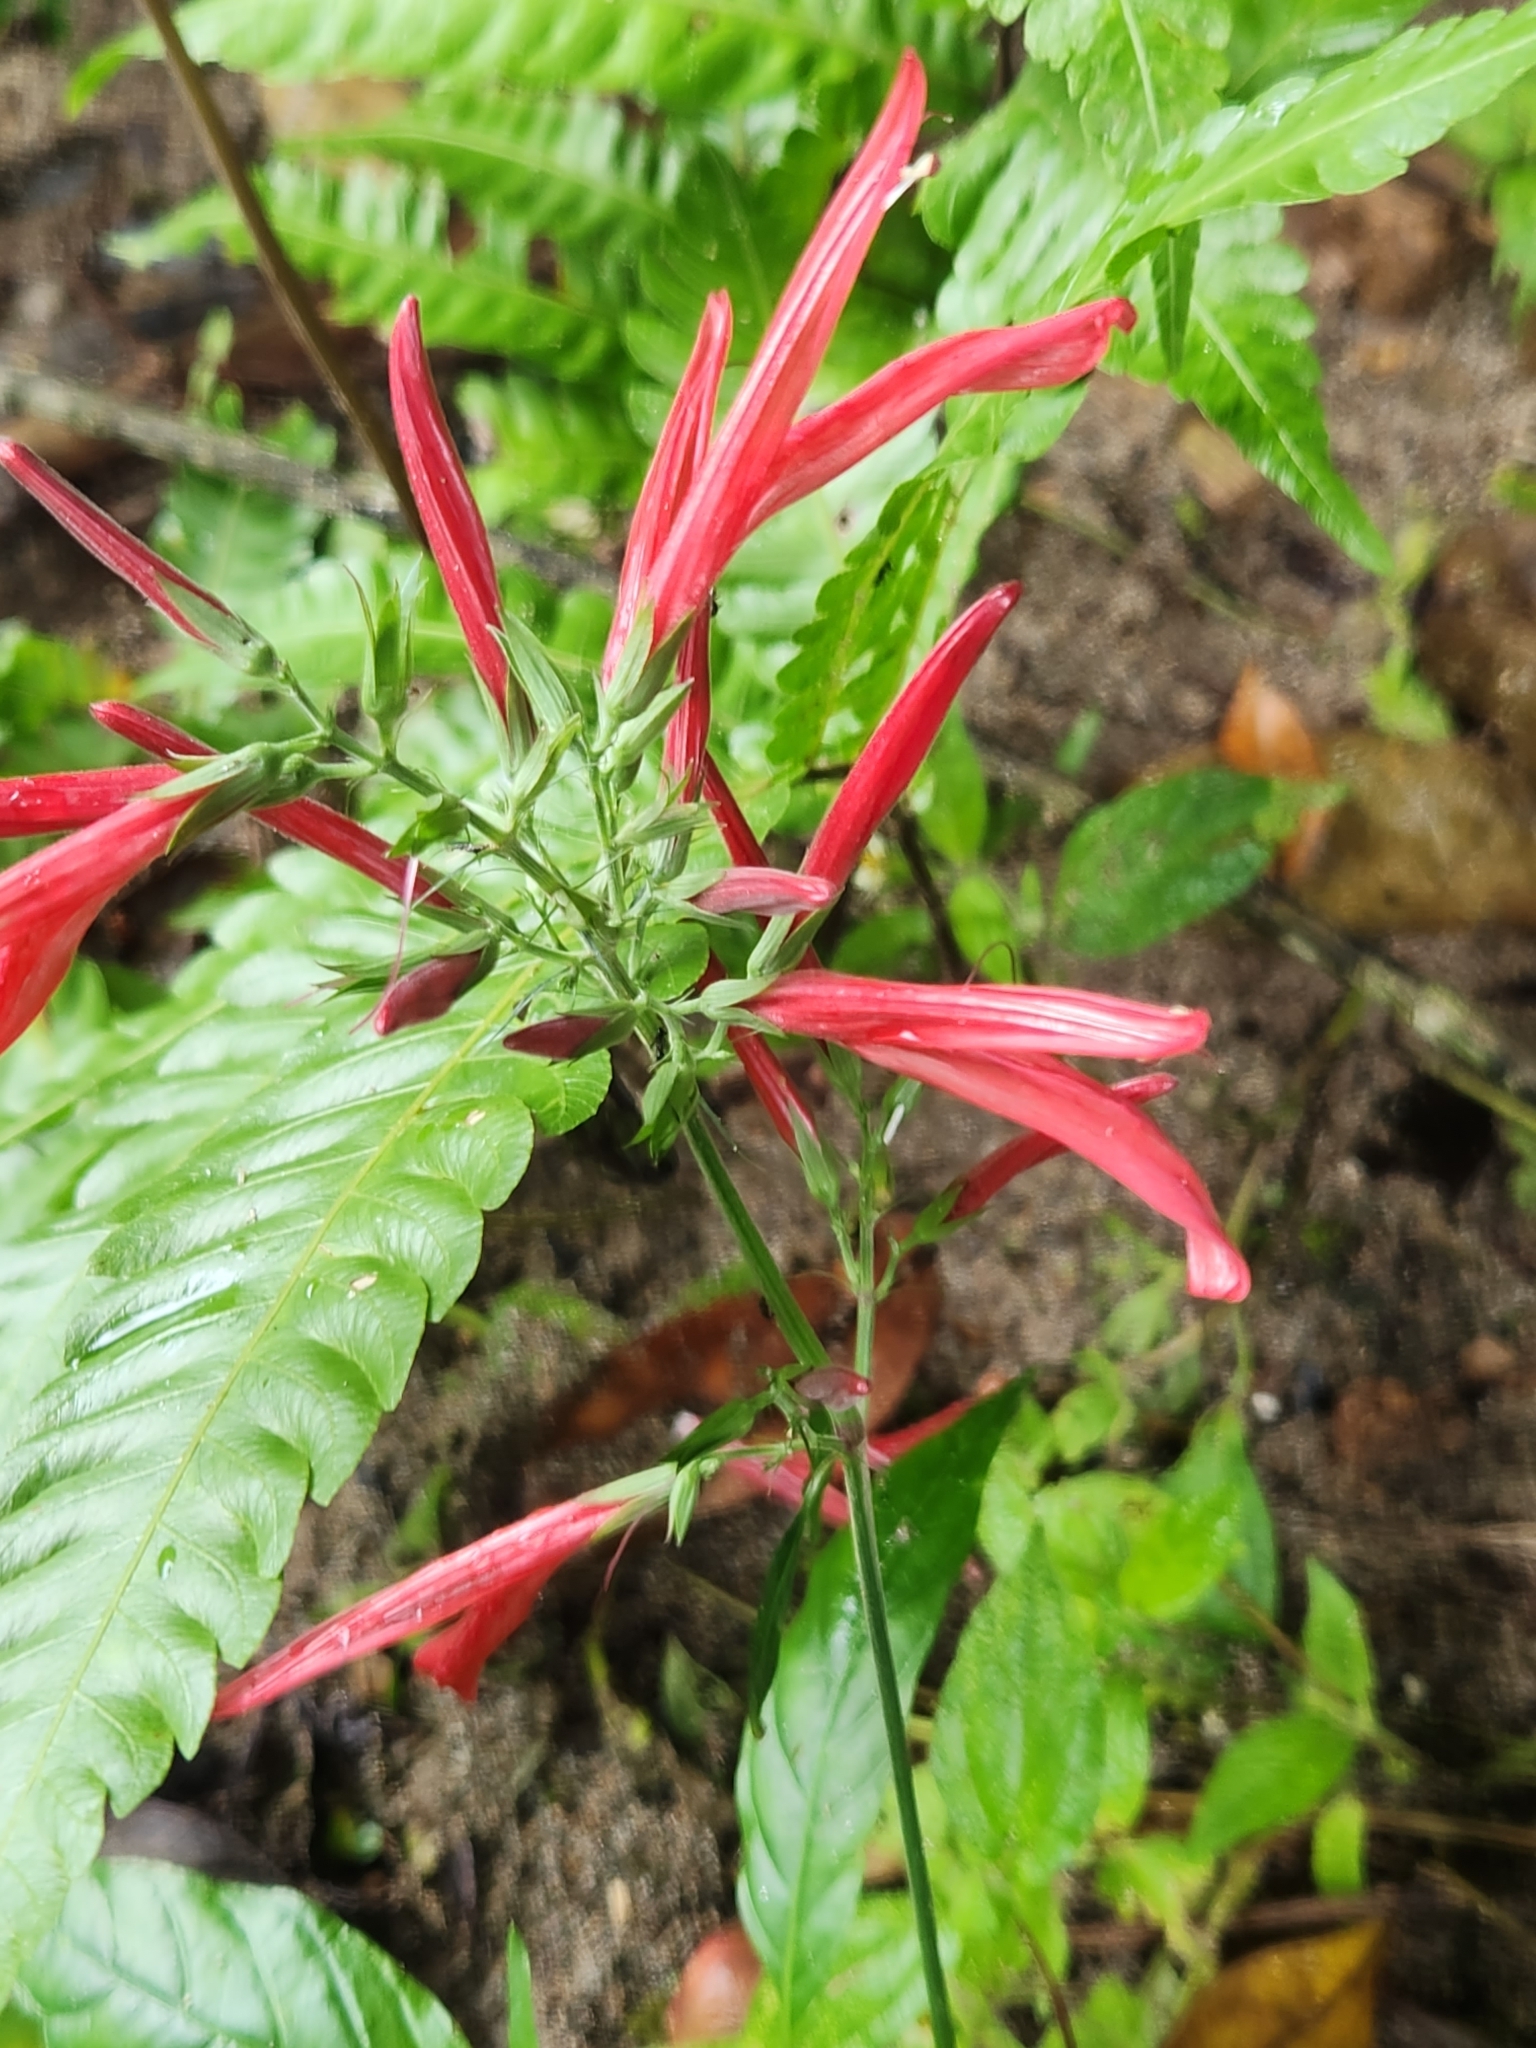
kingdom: Plantae
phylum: Tracheophyta
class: Magnoliopsida
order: Lamiales
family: Acanthaceae
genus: Dianthera
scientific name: Dianthera secunda
